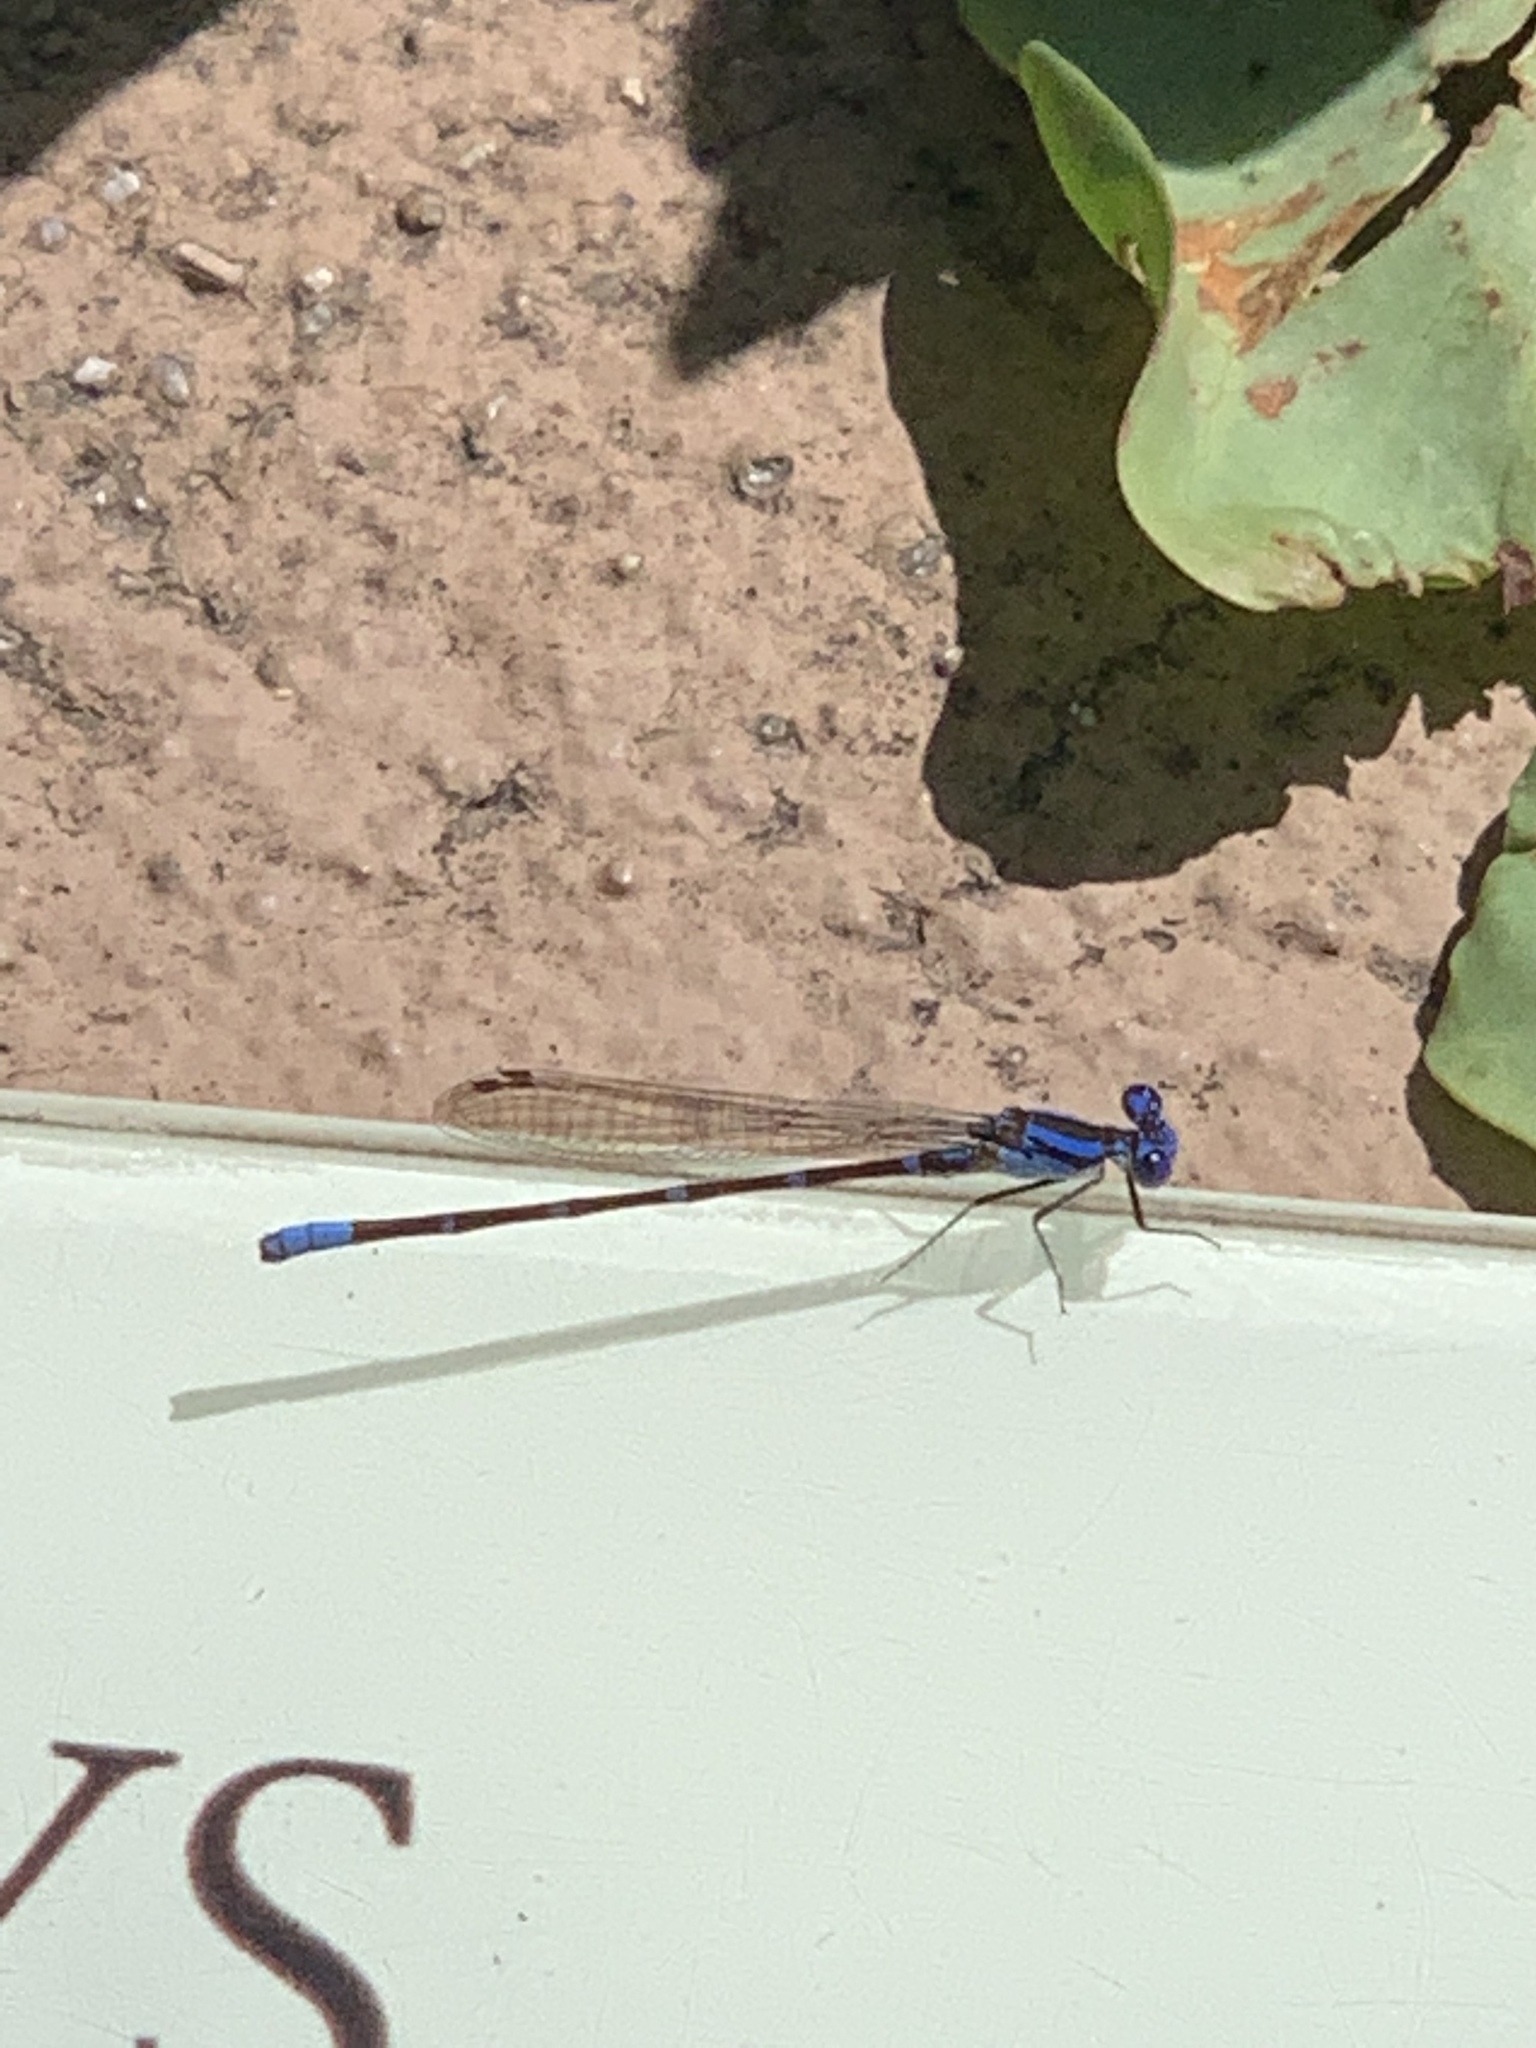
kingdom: Animalia
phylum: Arthropoda
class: Insecta
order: Odonata
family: Coenagrionidae
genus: Argia
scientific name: Argia sedula
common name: Blue-ringed dancer
